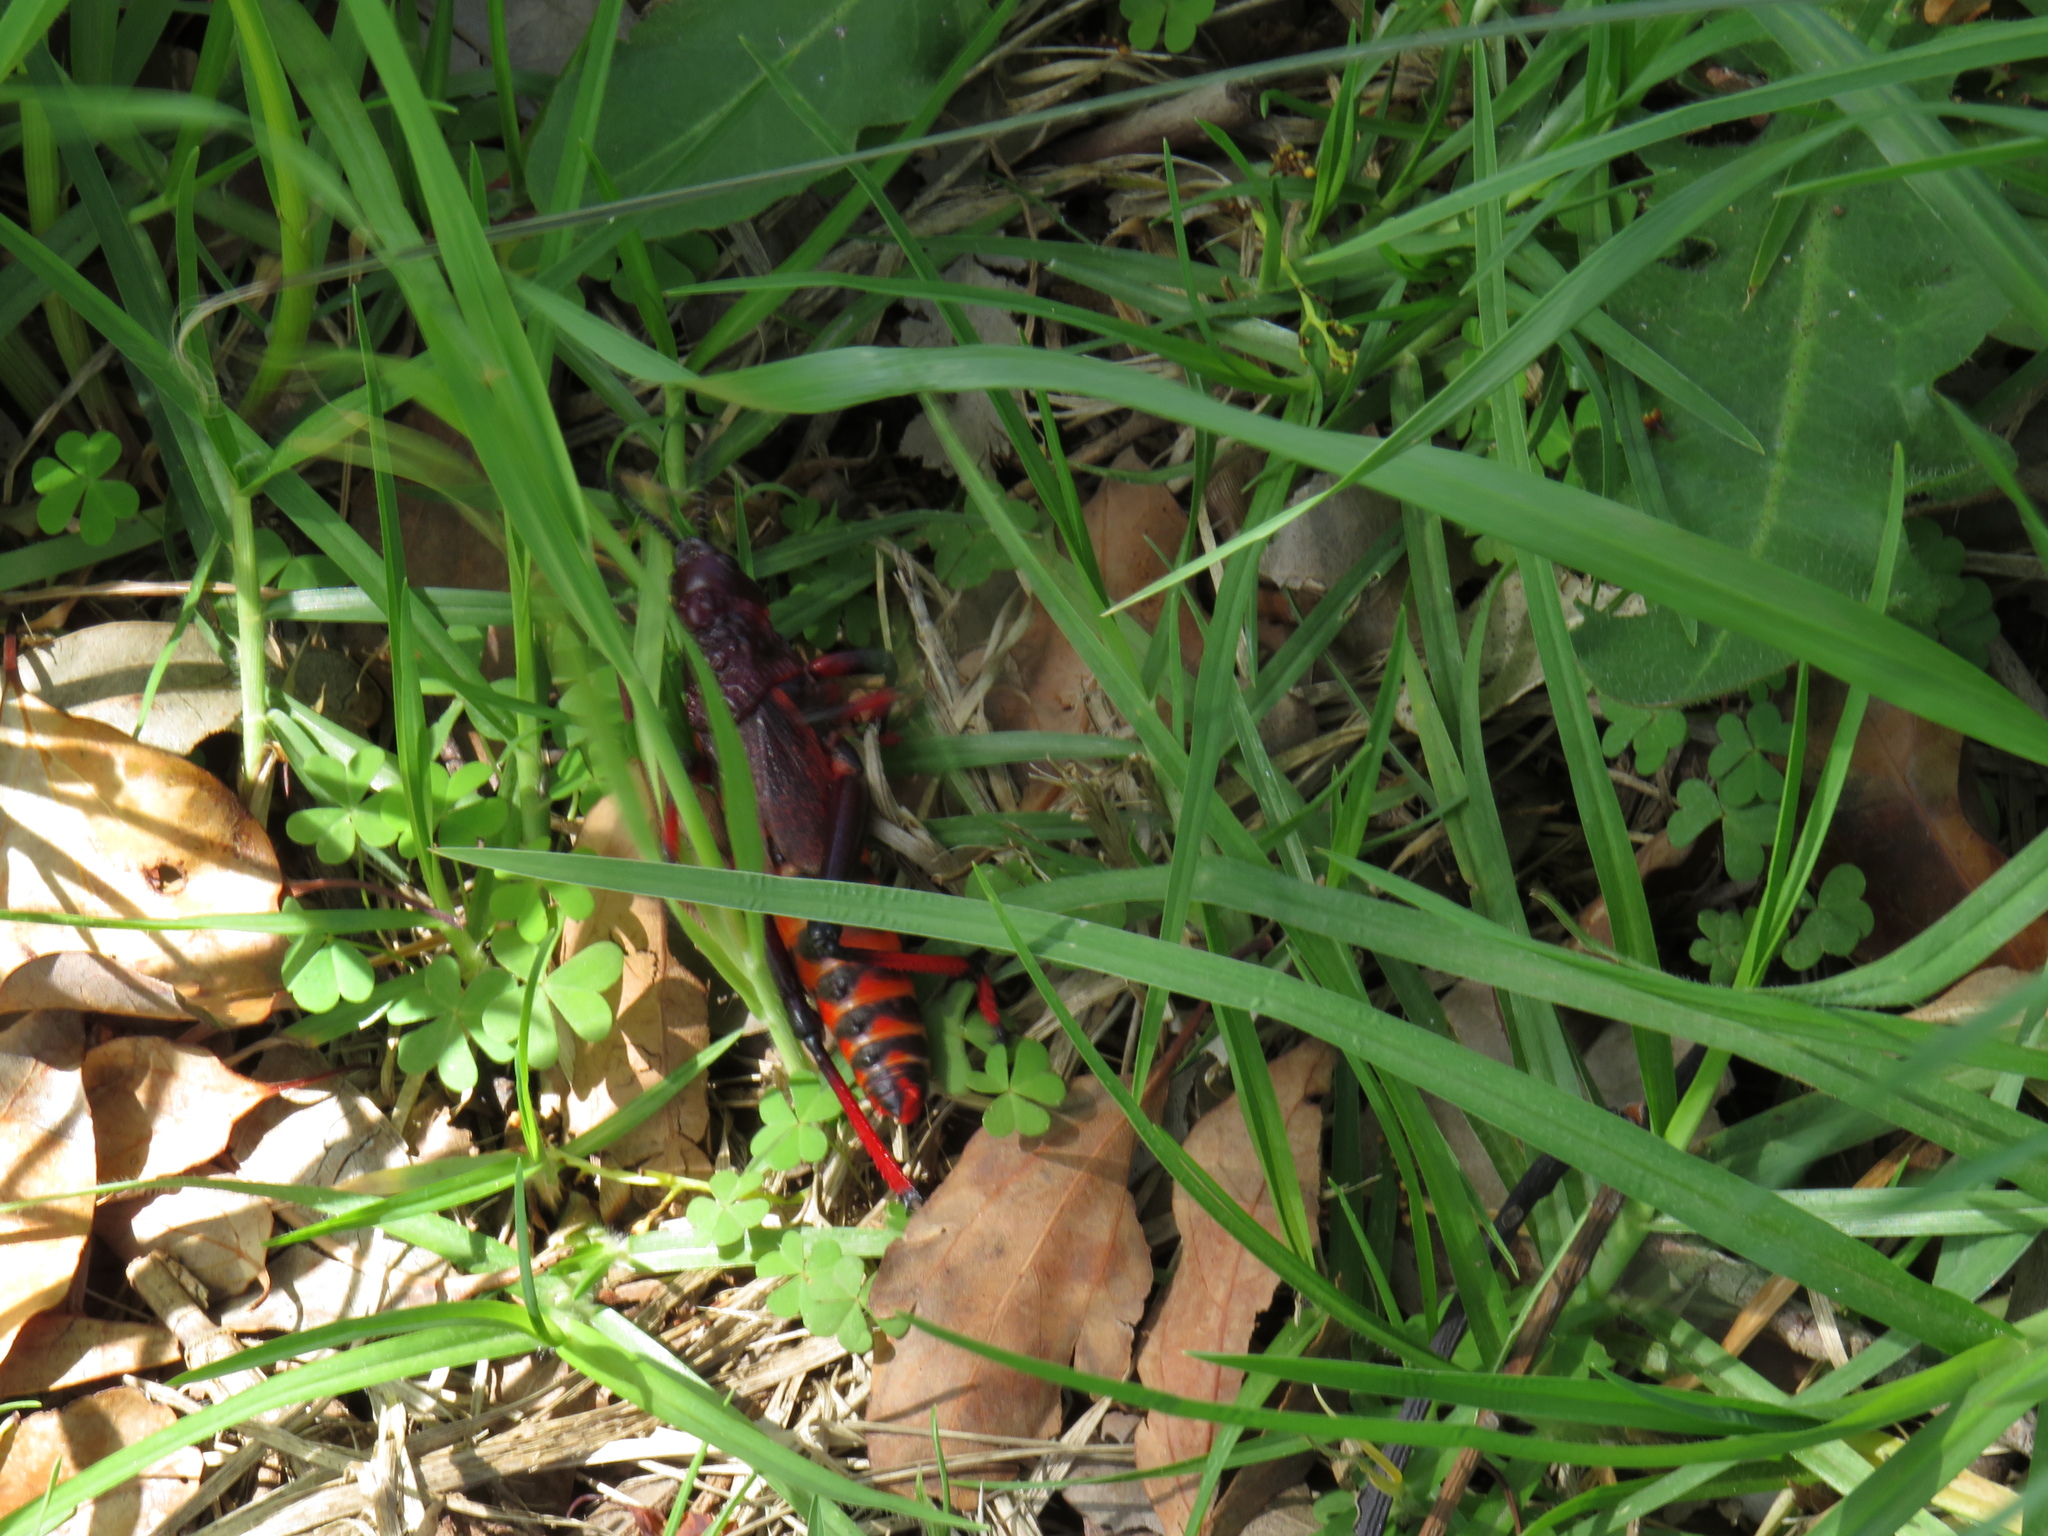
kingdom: Animalia
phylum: Arthropoda
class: Insecta
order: Orthoptera
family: Pyrgomorphidae
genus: Dictyophorus
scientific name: Dictyophorus spumans
